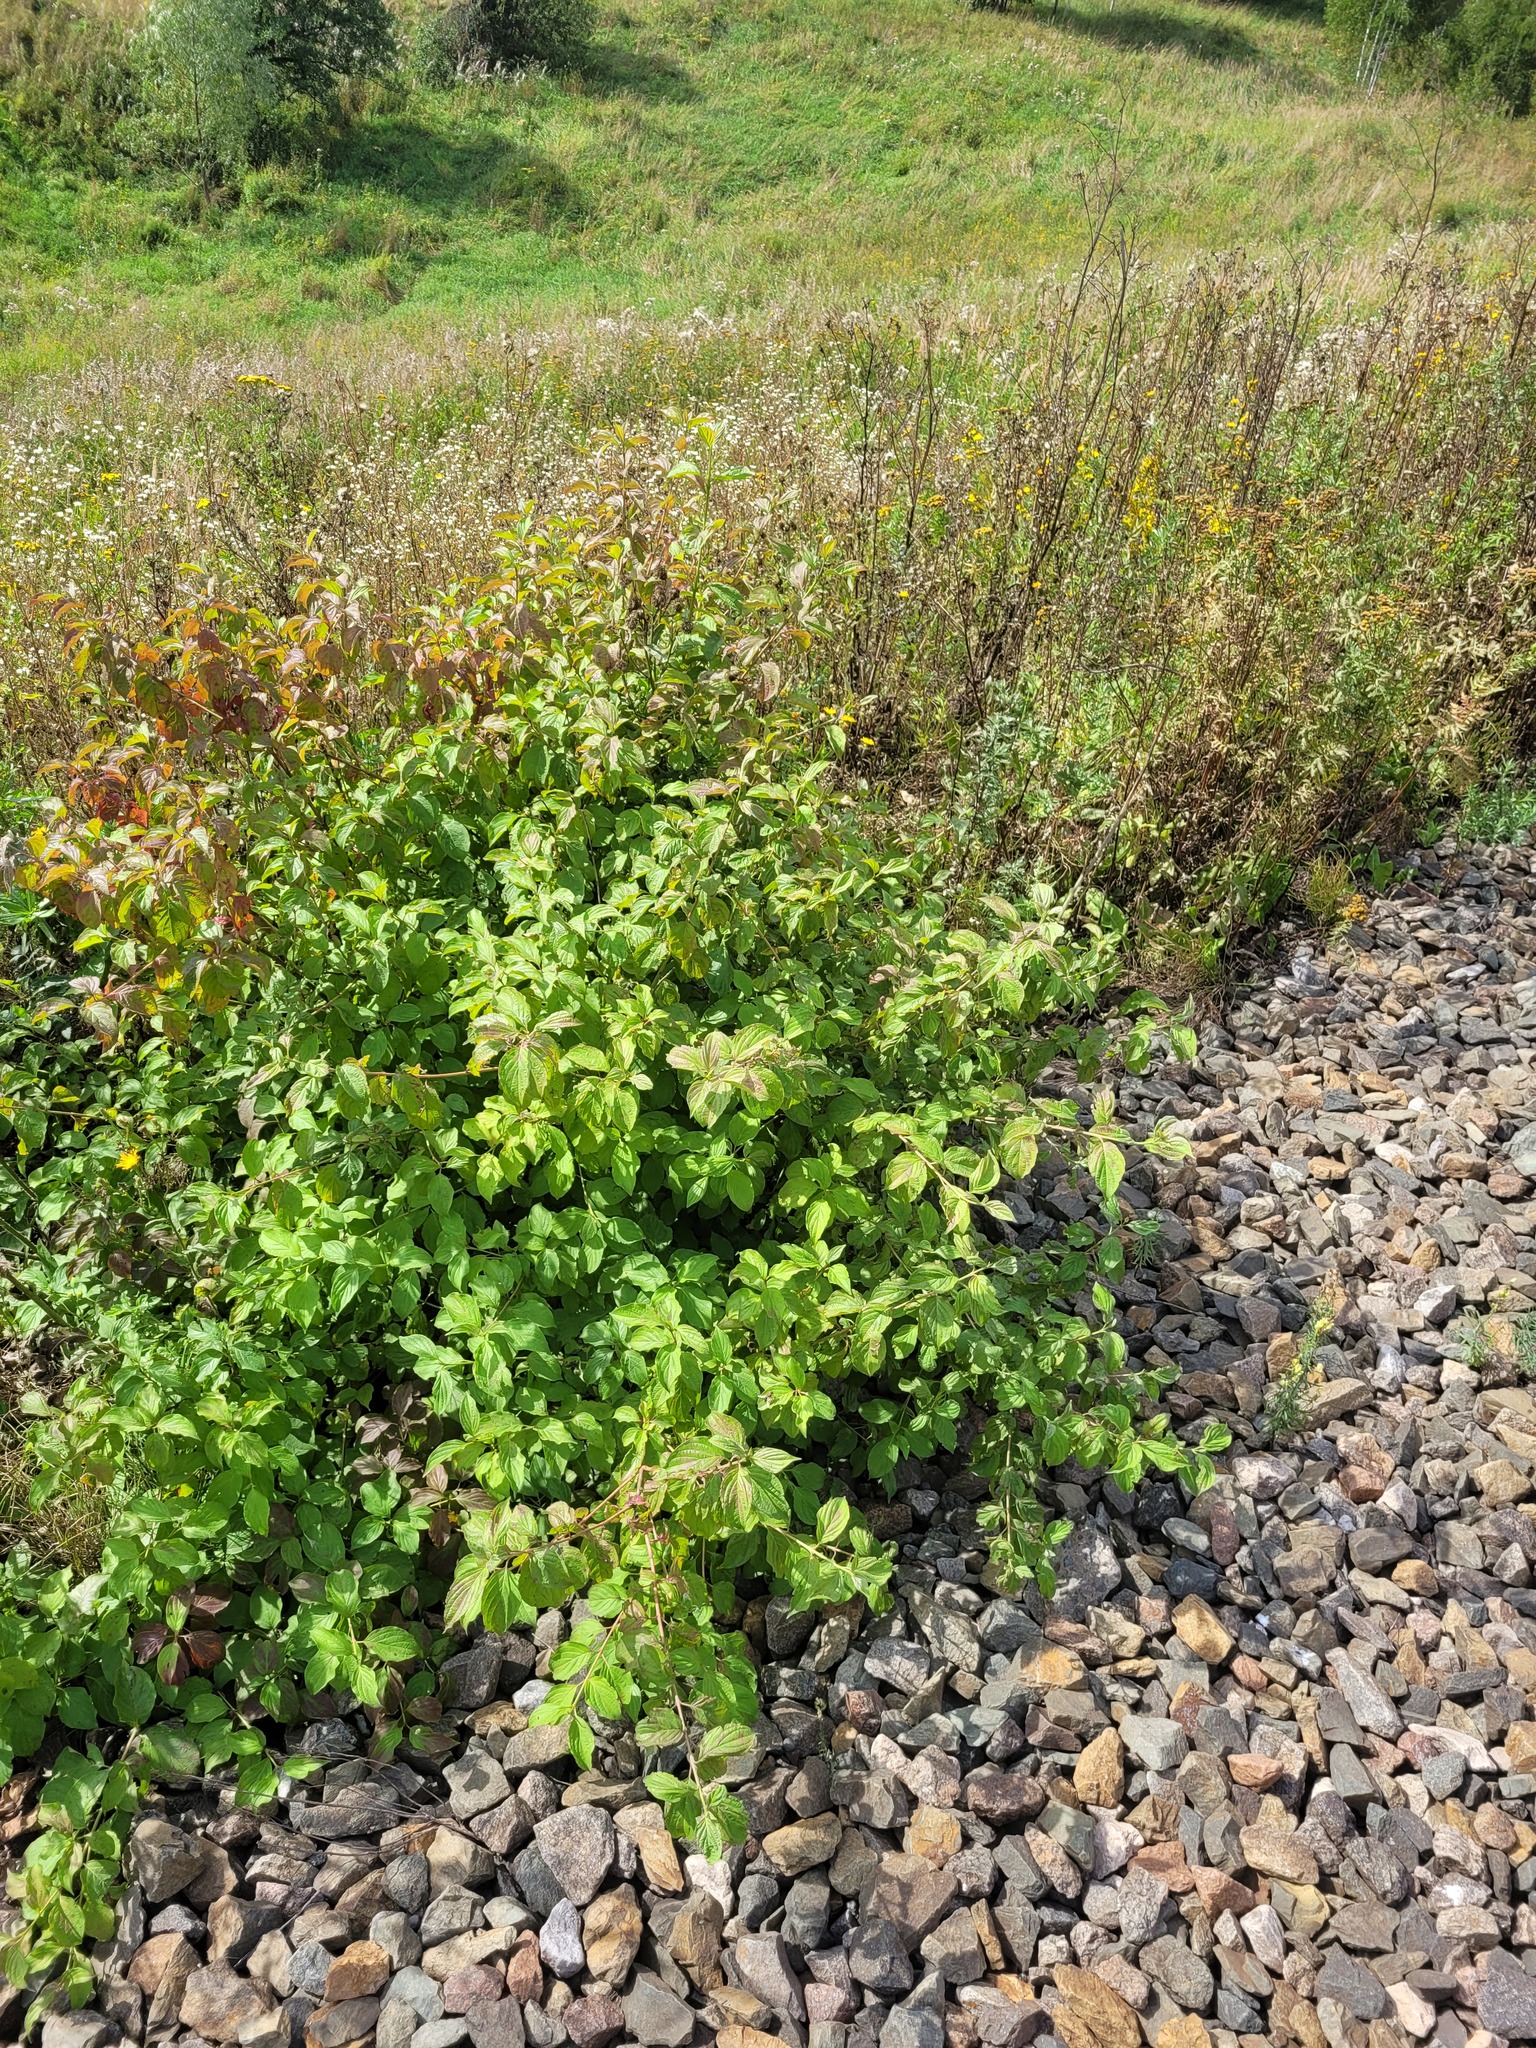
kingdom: Plantae
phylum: Tracheophyta
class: Magnoliopsida
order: Cornales
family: Cornaceae
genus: Cornus
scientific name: Cornus sanguinea
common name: Dogwood
